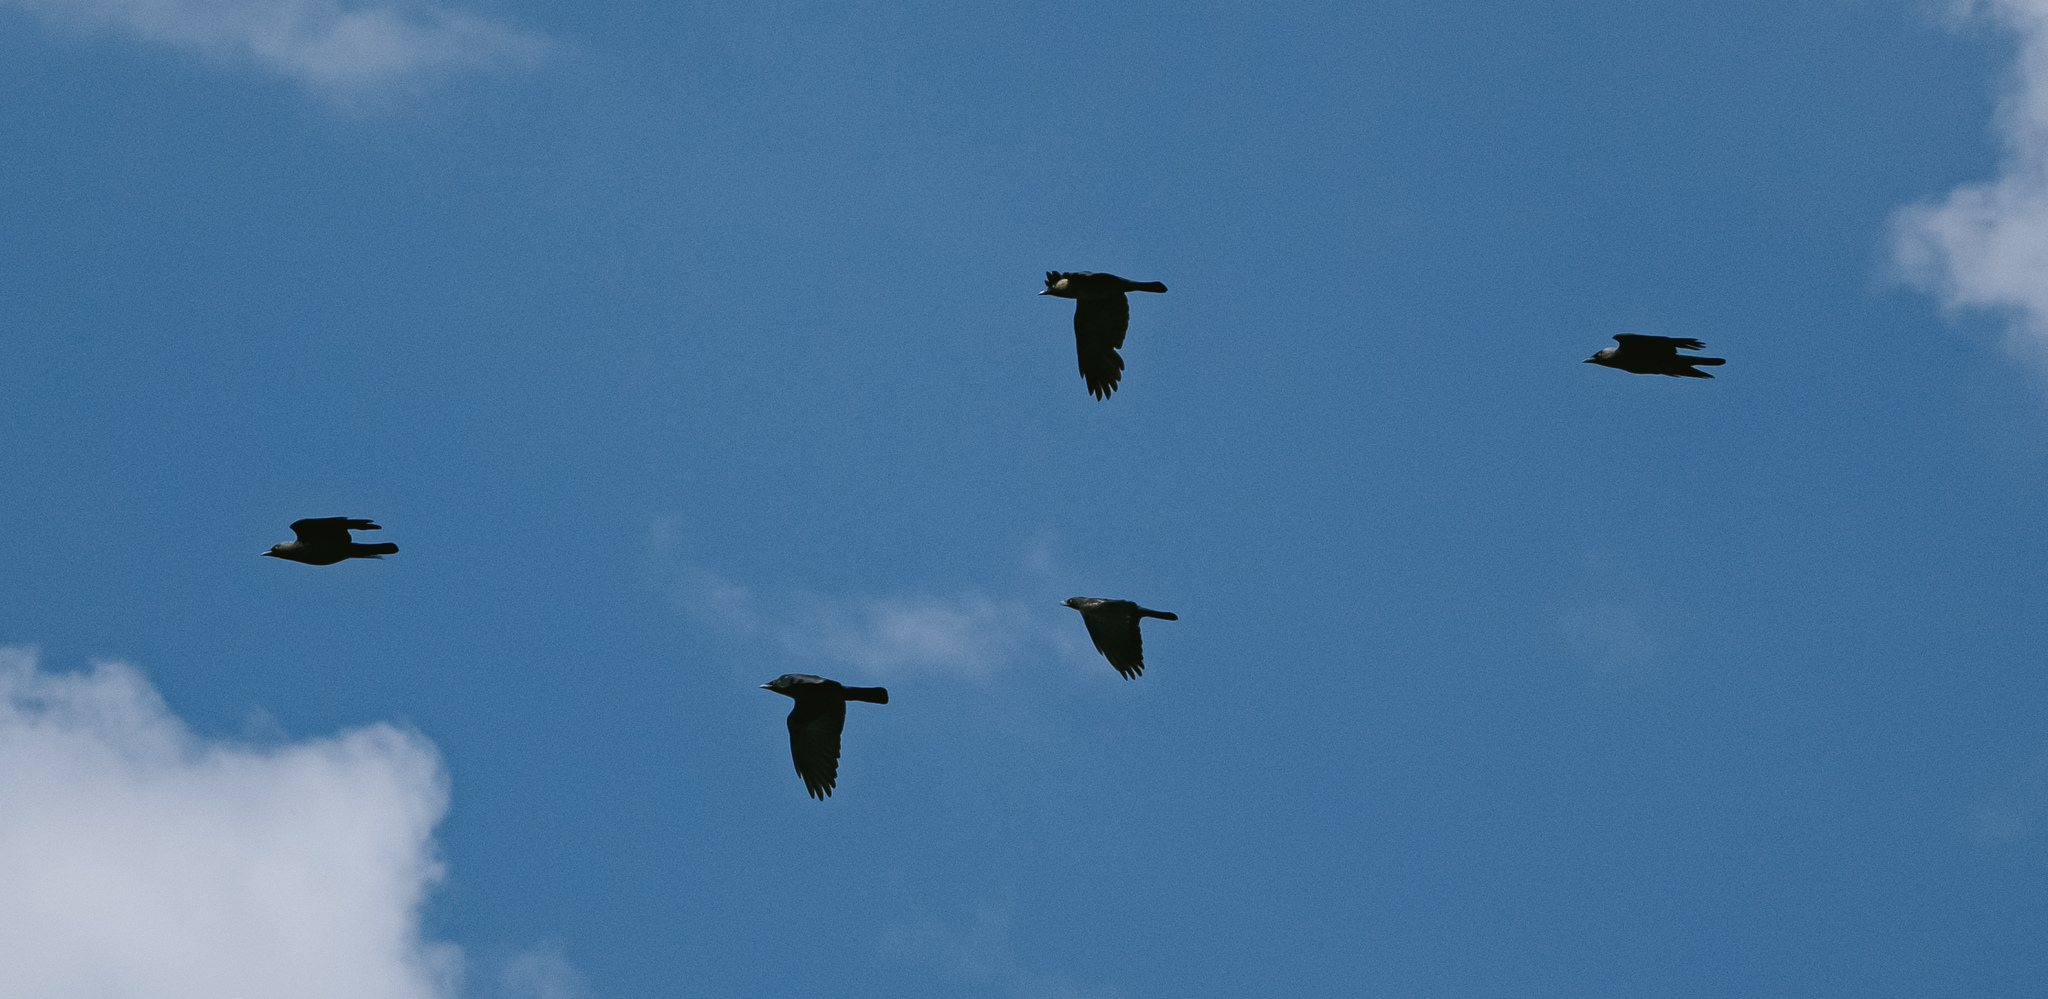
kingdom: Animalia
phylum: Chordata
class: Aves
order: Passeriformes
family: Corvidae
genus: Coloeus
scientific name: Coloeus monedula
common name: Western jackdaw
